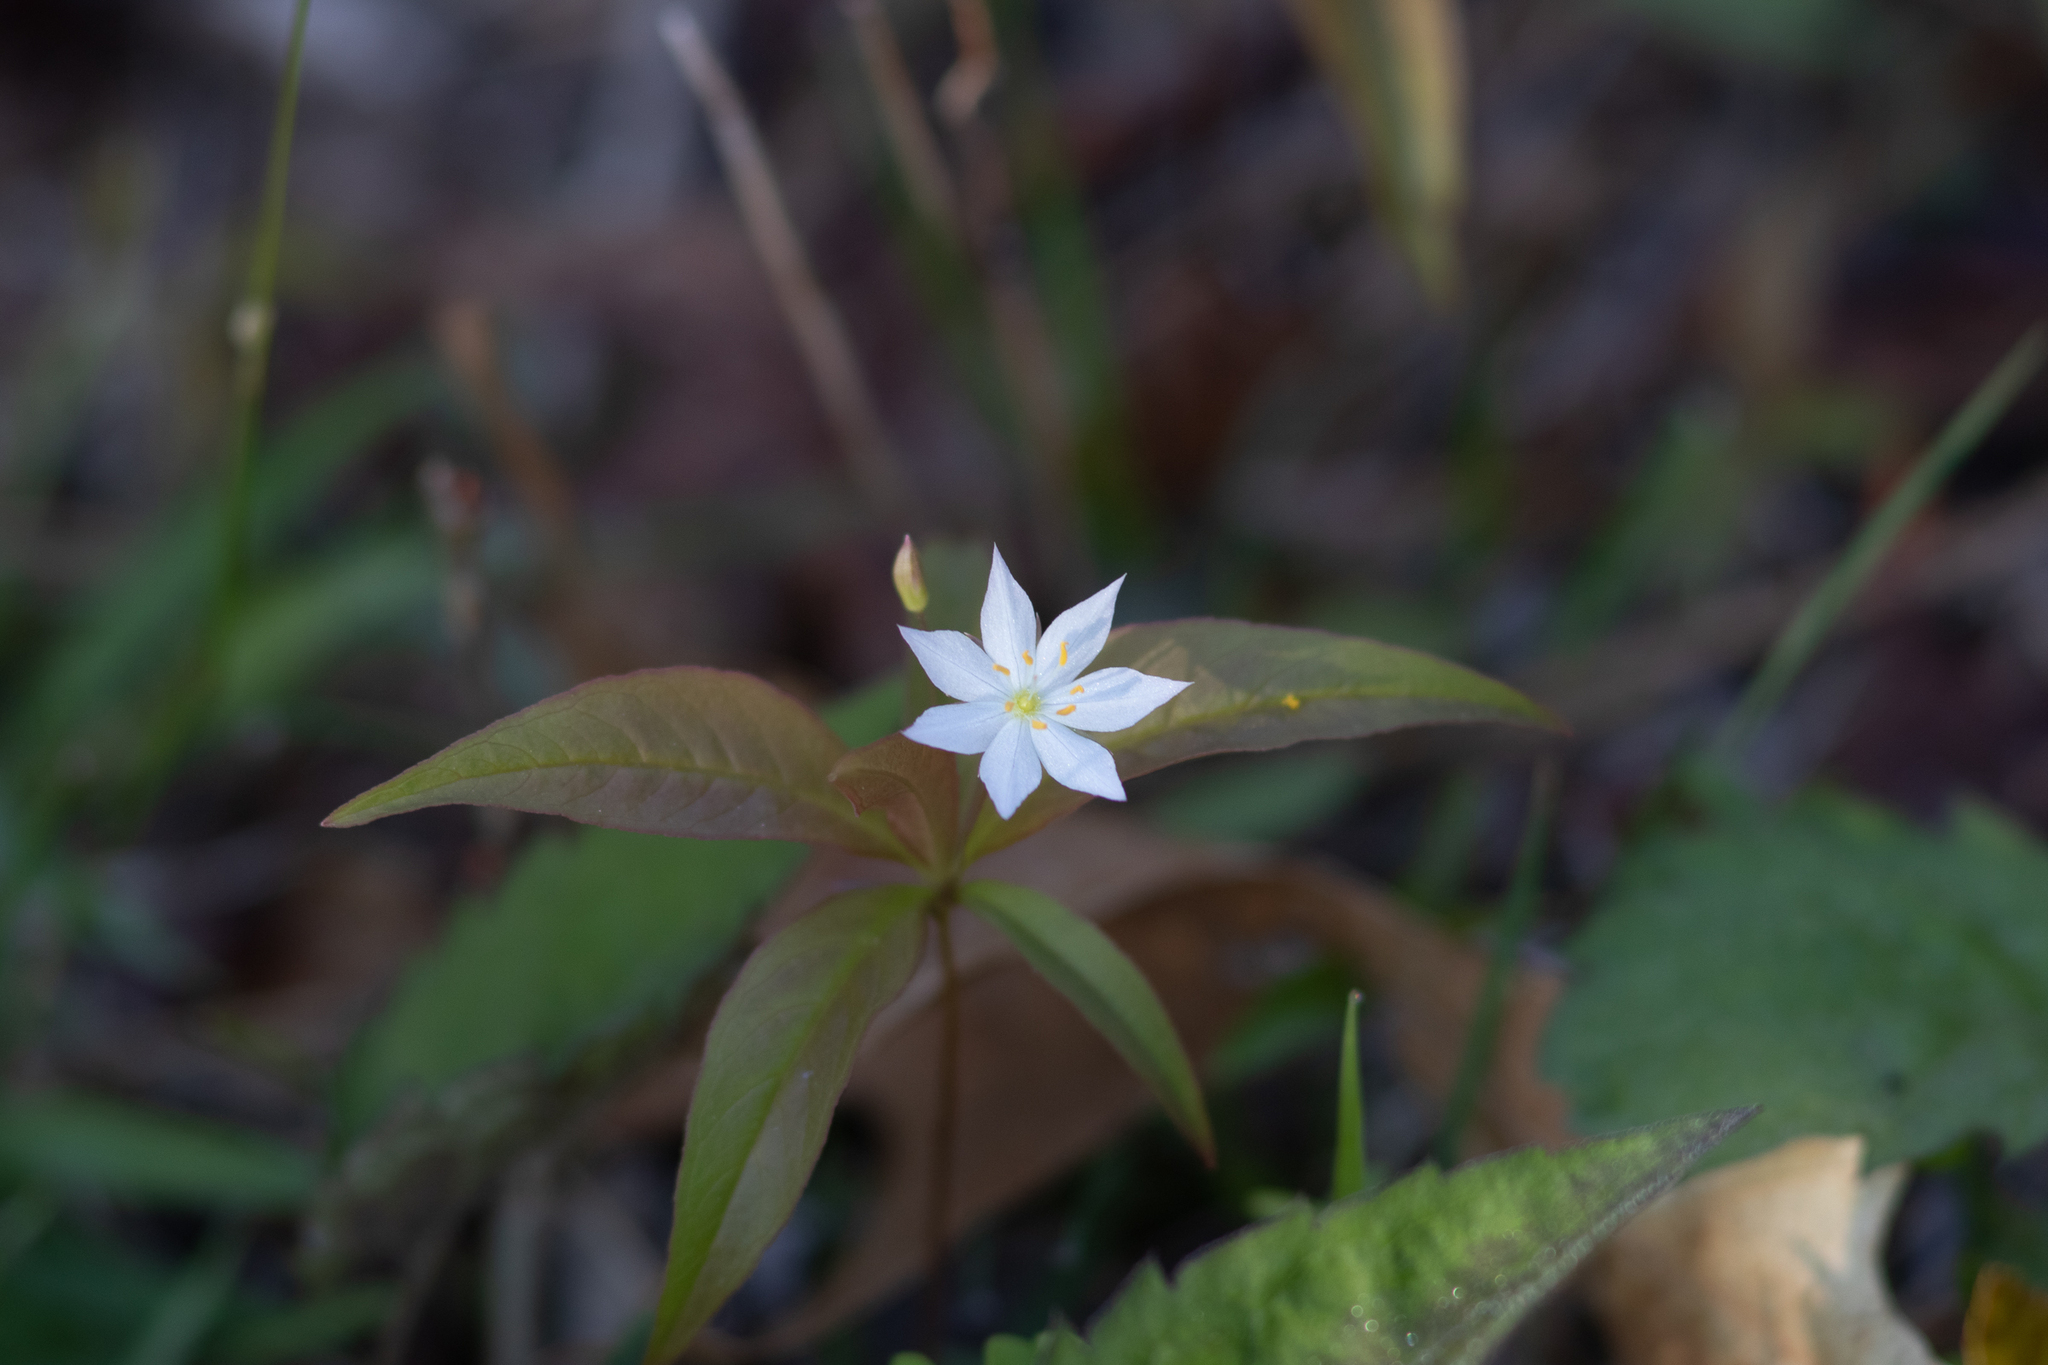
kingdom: Plantae
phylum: Tracheophyta
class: Magnoliopsida
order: Ericales
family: Primulaceae
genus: Lysimachia
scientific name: Lysimachia borealis
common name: American starflower
